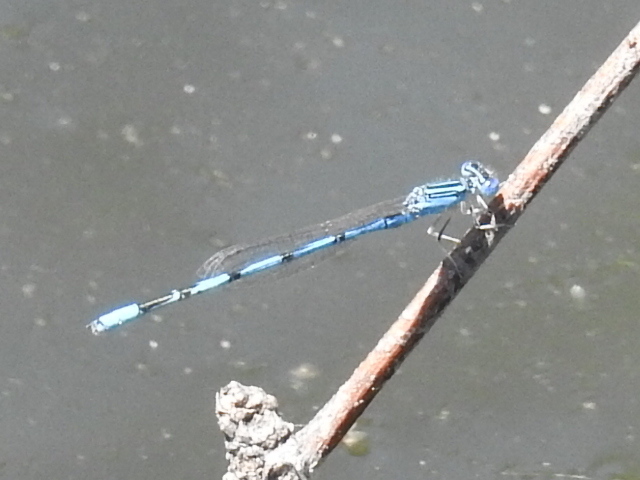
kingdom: Animalia
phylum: Arthropoda
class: Insecta
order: Odonata
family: Coenagrionidae
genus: Enallagma
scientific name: Enallagma basidens
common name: Double-striped bluet
